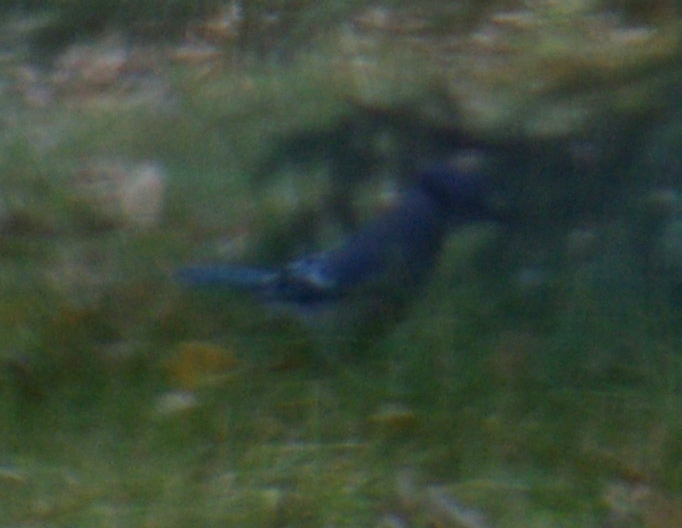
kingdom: Animalia
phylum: Chordata
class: Aves
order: Passeriformes
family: Corvidae
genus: Cyanocitta
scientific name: Cyanocitta cristata
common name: Blue jay
